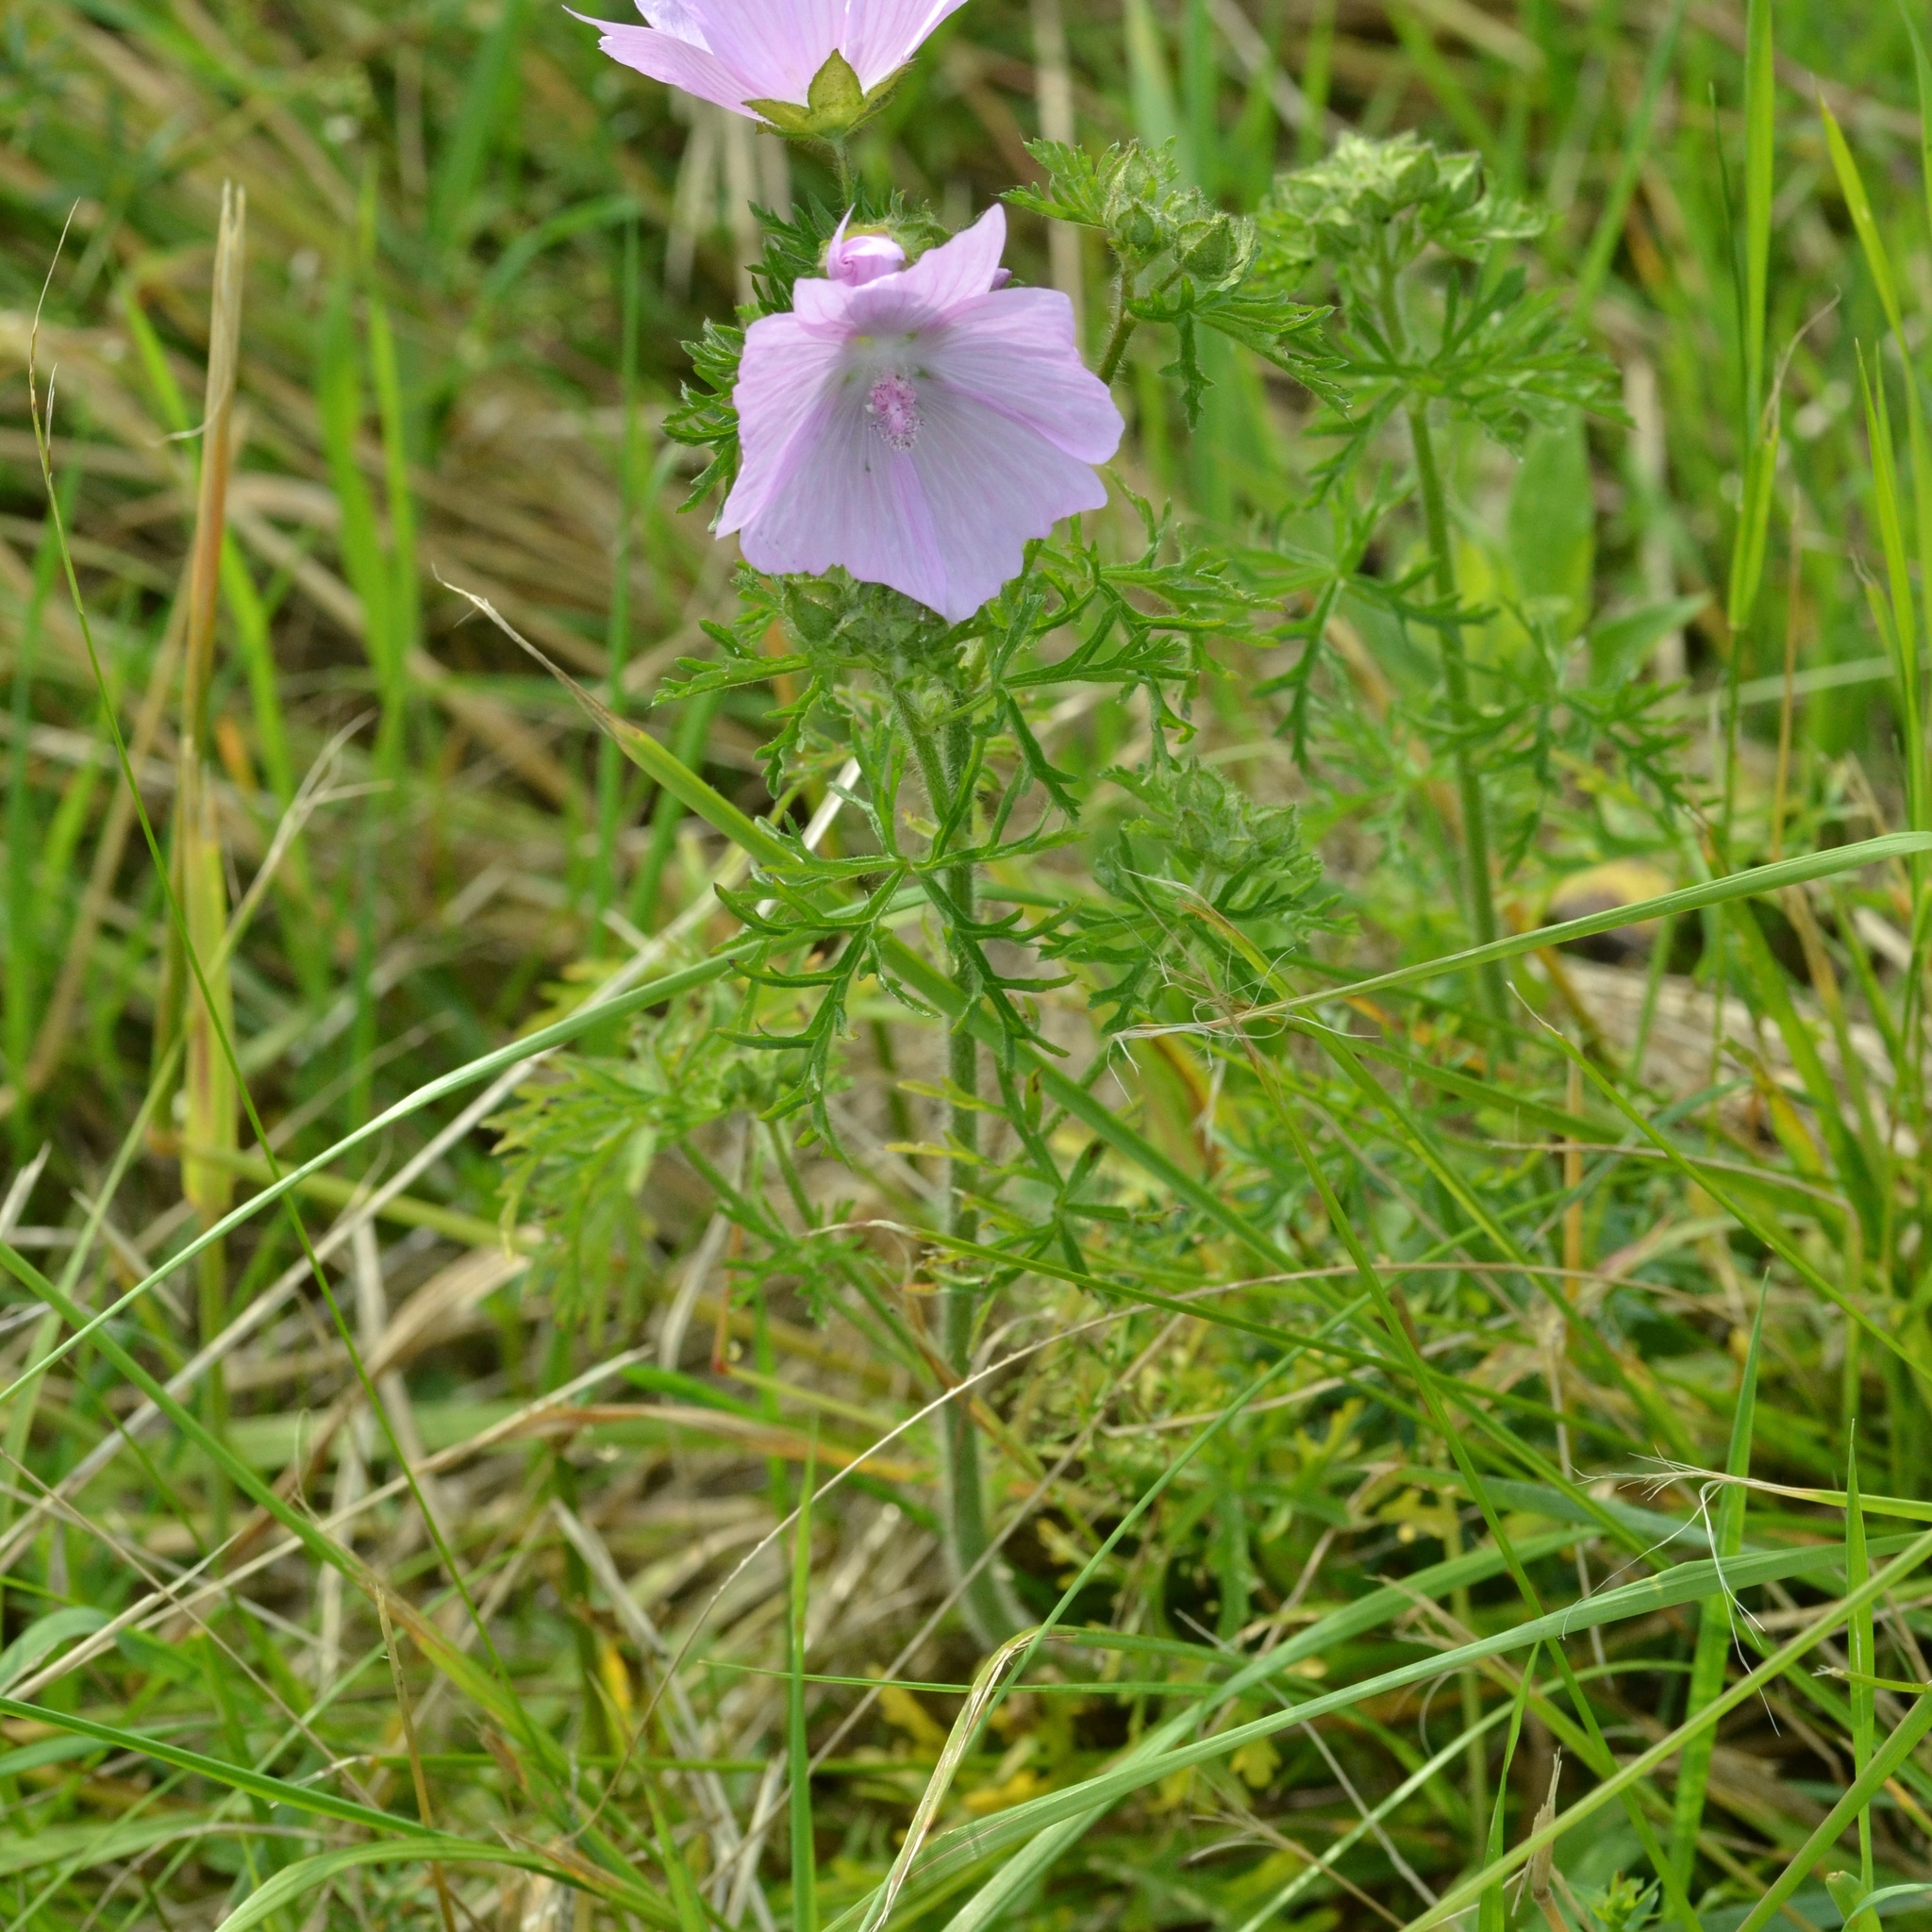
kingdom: Plantae
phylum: Tracheophyta
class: Magnoliopsida
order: Malvales
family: Malvaceae
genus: Malva
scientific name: Malva moschata
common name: Musk mallow
